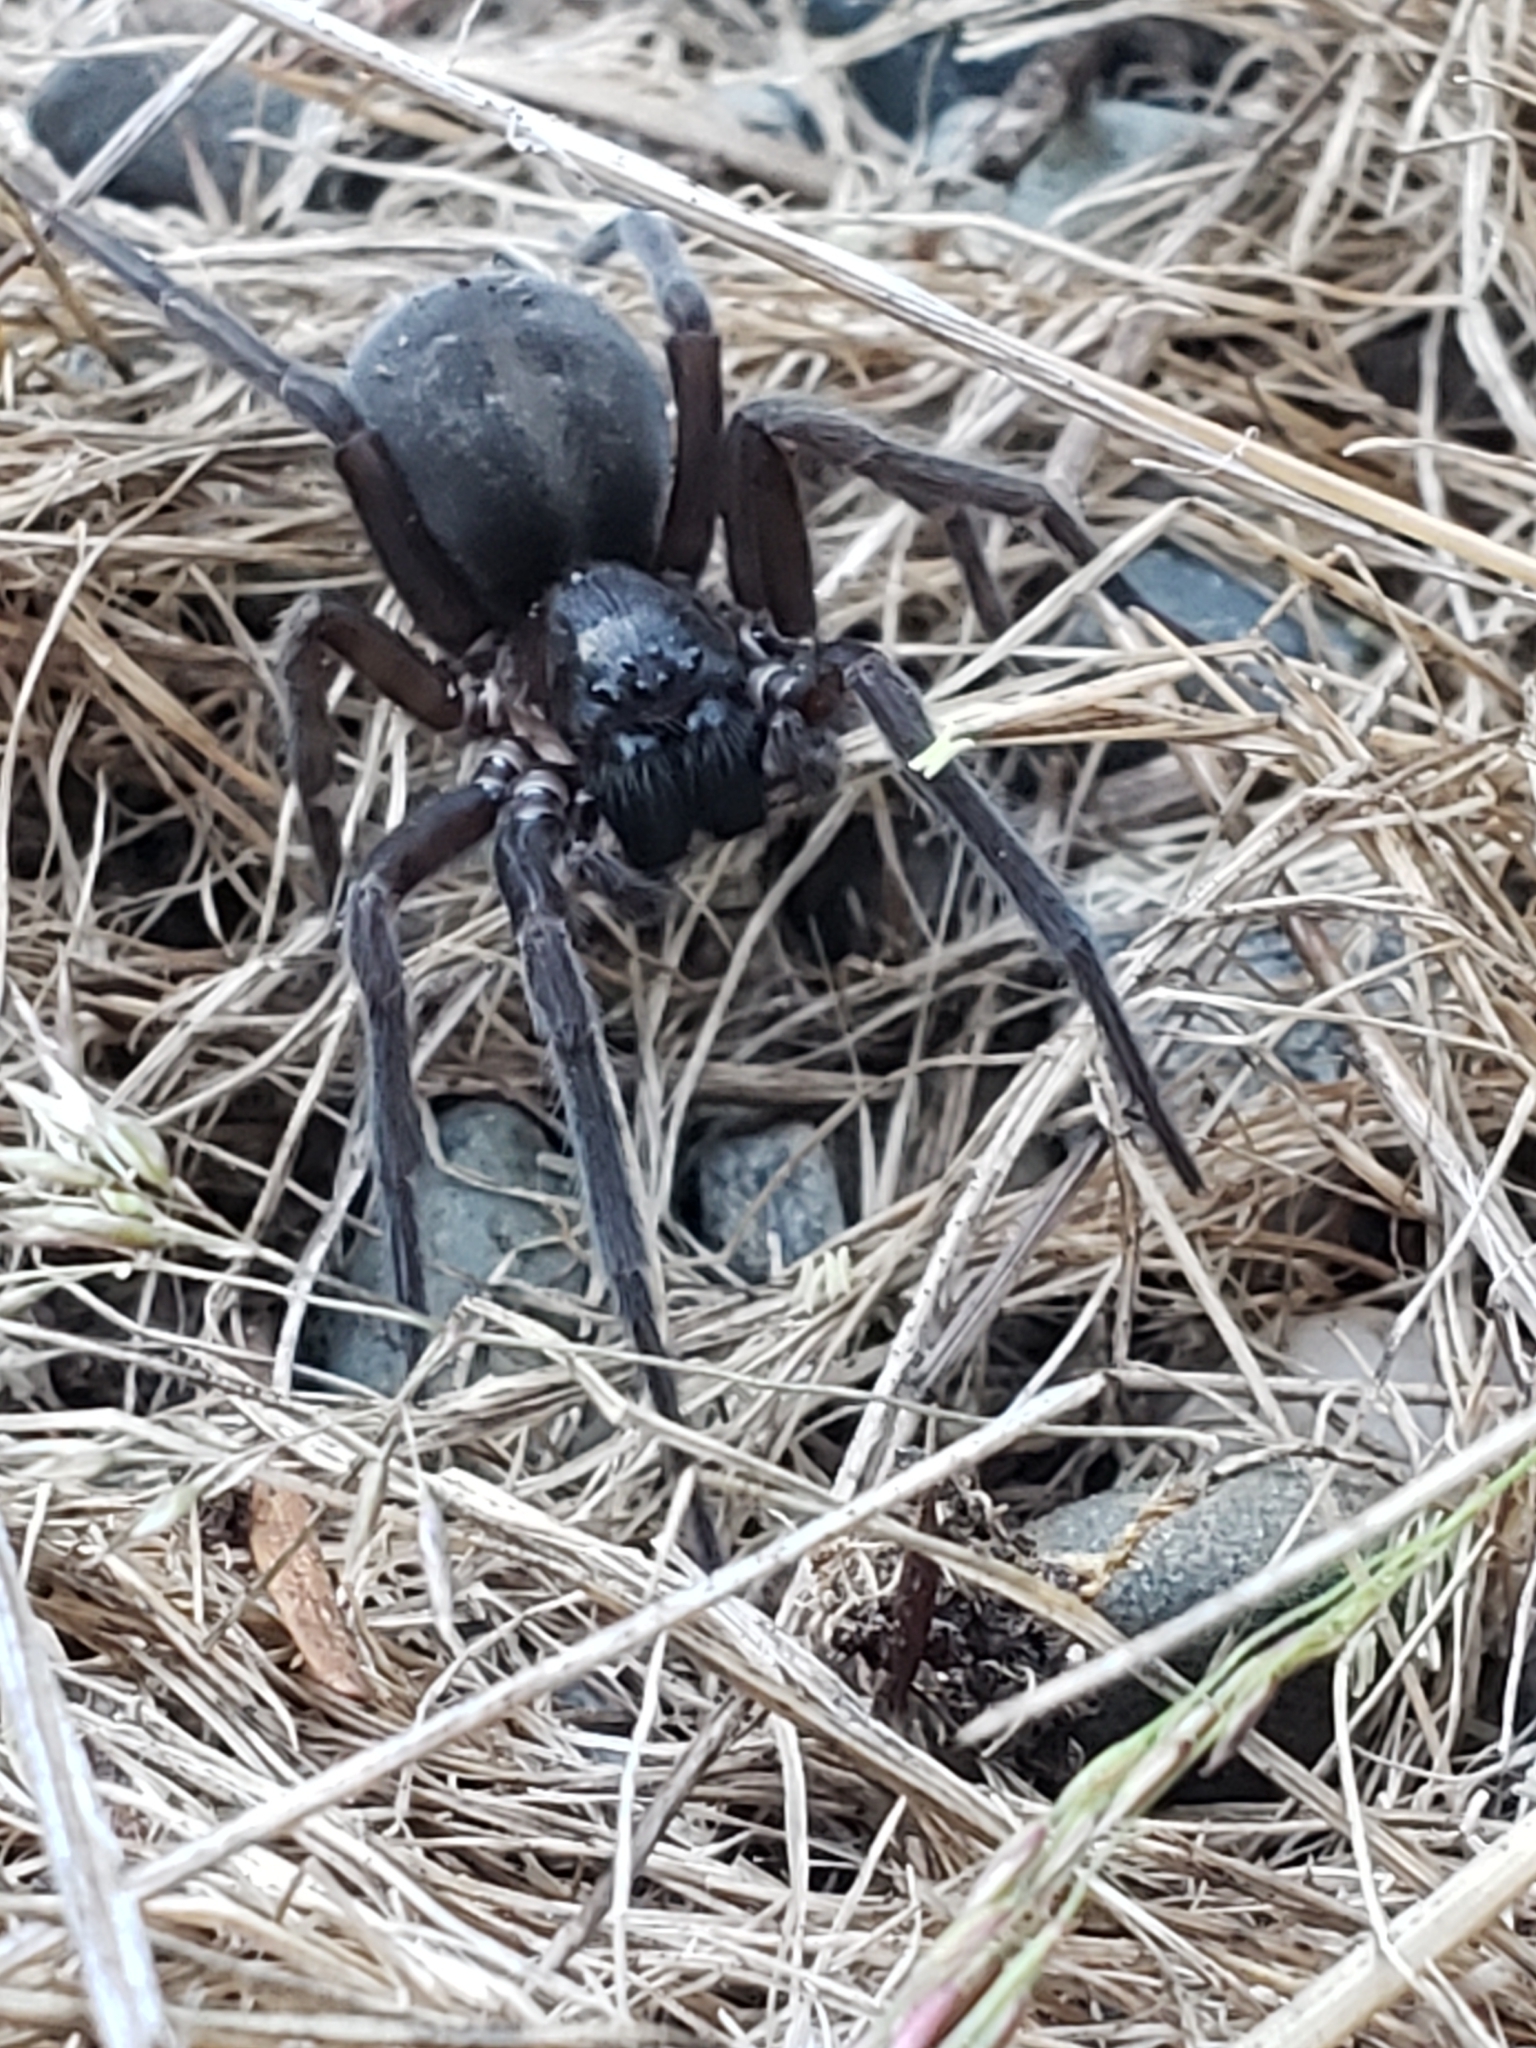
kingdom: Animalia
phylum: Arthropoda
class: Arachnida
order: Araneae
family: Amaurobiidae
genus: Amaurobius
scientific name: Amaurobius ferox
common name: Black laceweaver
